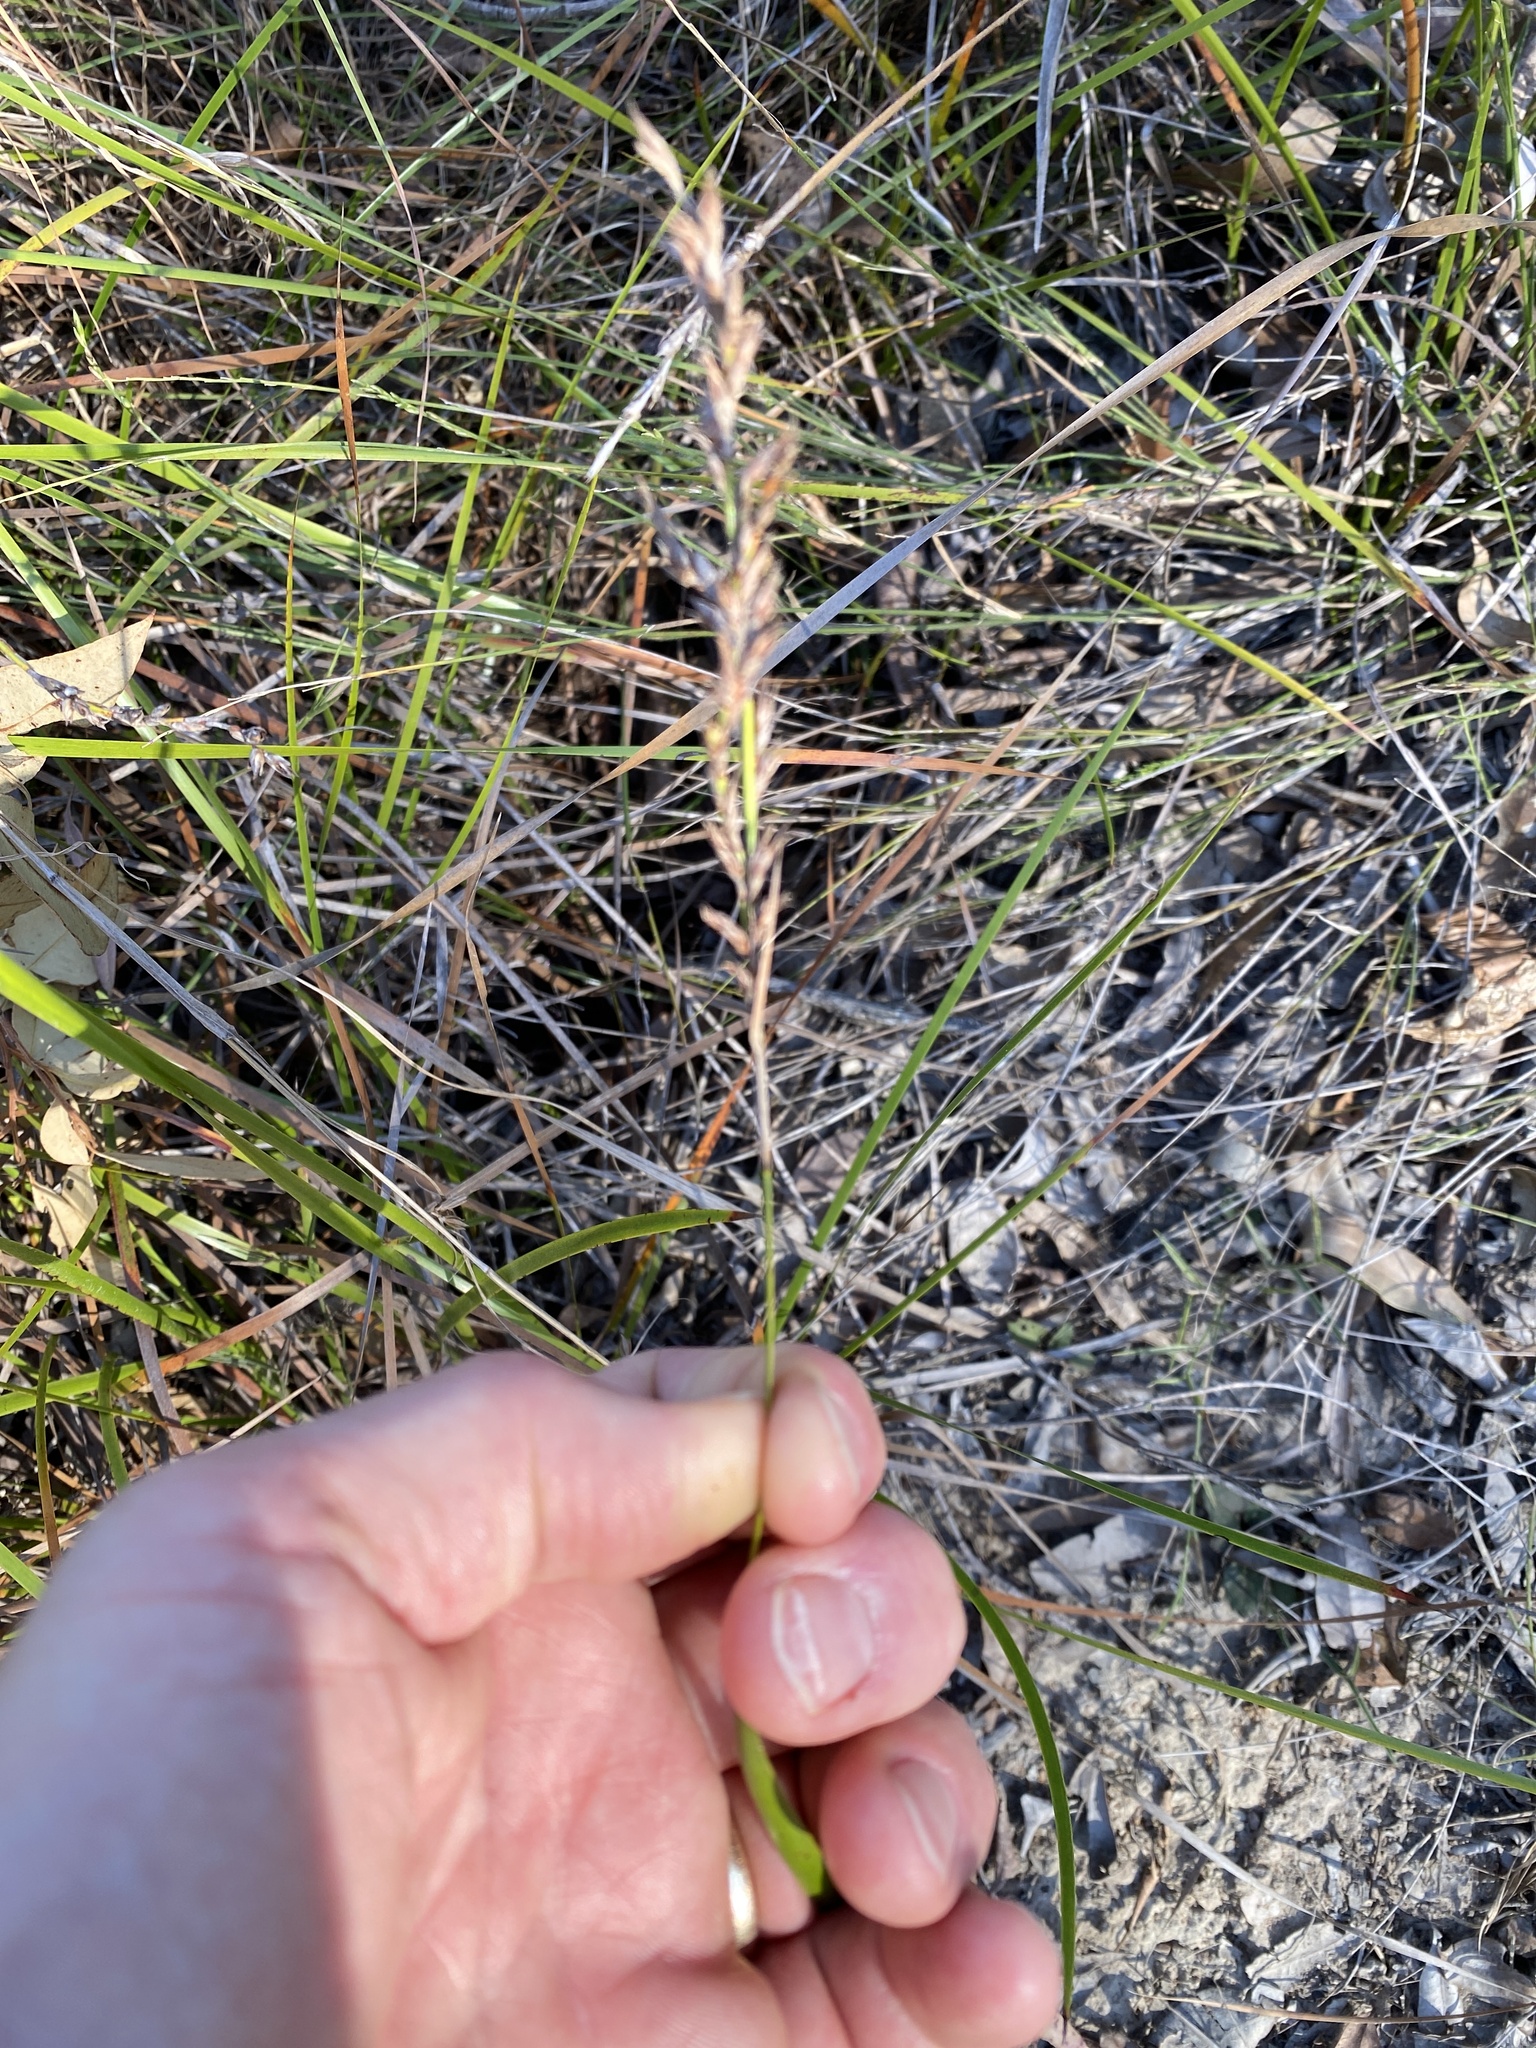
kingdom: Plantae
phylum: Tracheophyta
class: Liliopsida
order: Poales
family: Cyperaceae
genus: Lepidosperma
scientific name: Lepidosperma laterale
